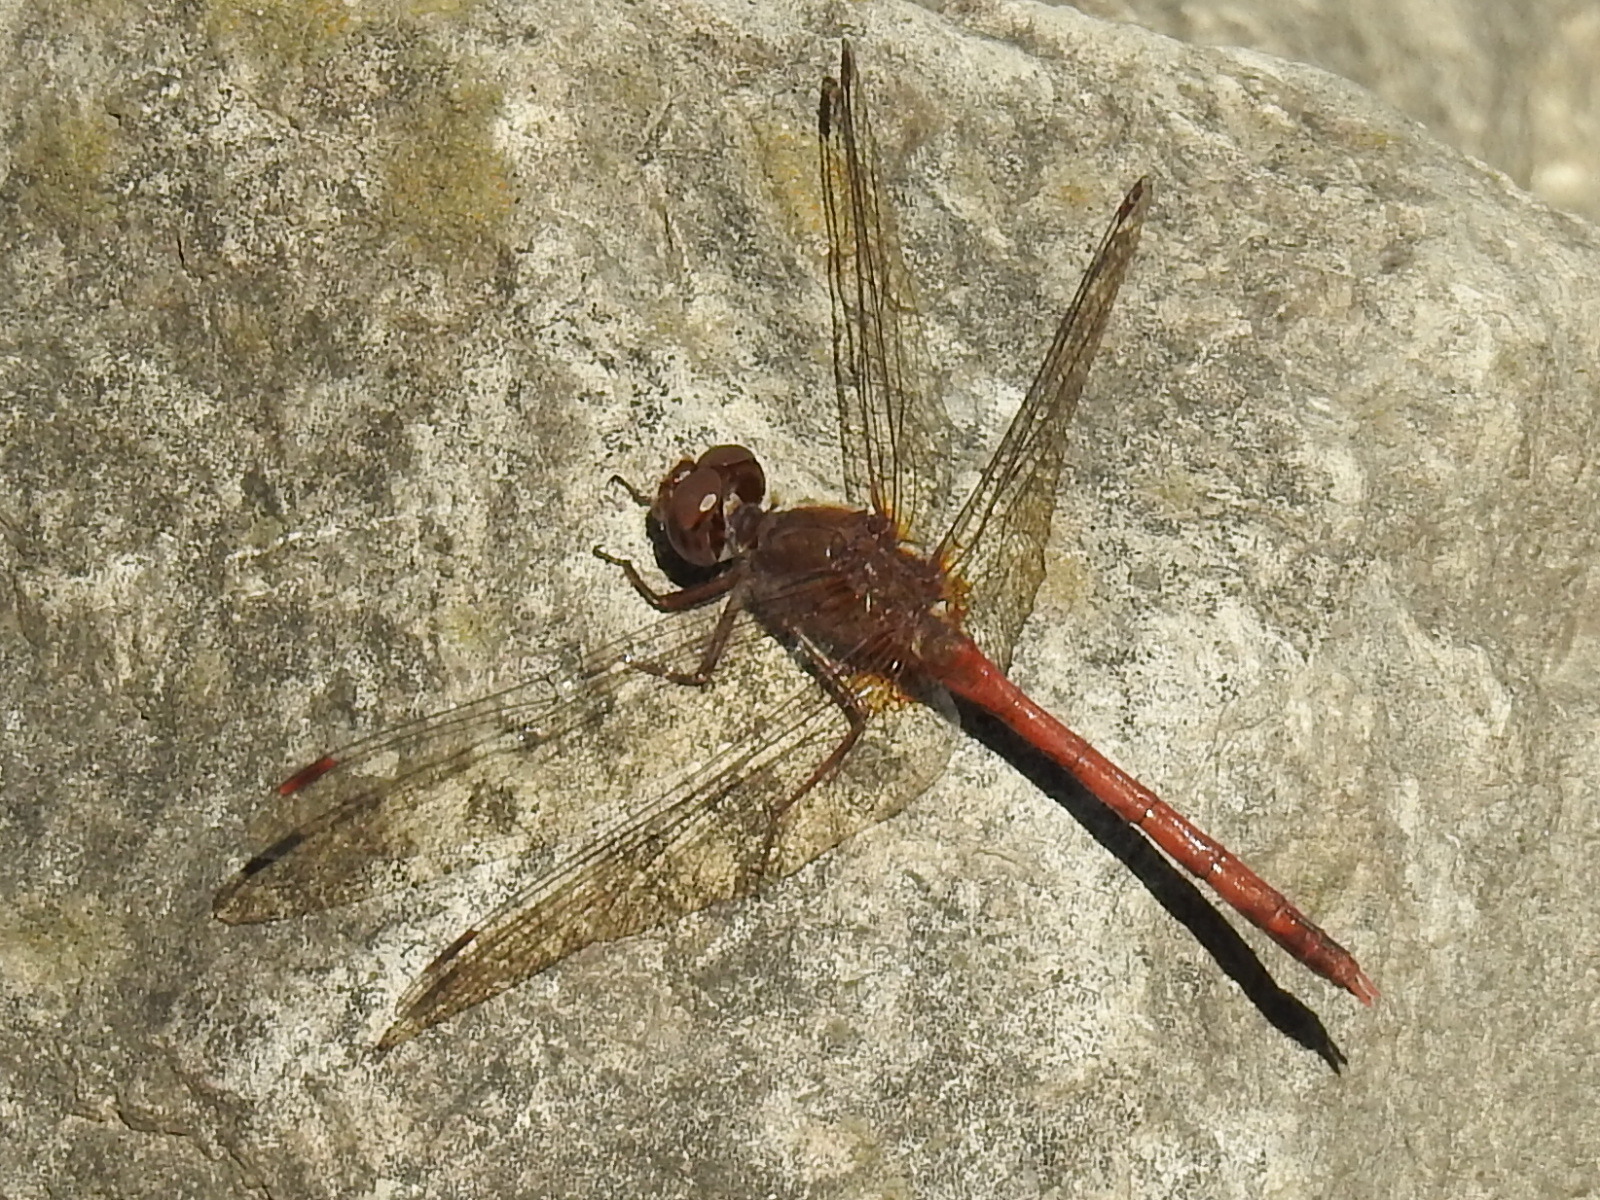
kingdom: Animalia
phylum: Arthropoda
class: Insecta
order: Odonata
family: Libellulidae
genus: Sympetrum
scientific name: Sympetrum vicinum
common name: Autumn meadowhawk
